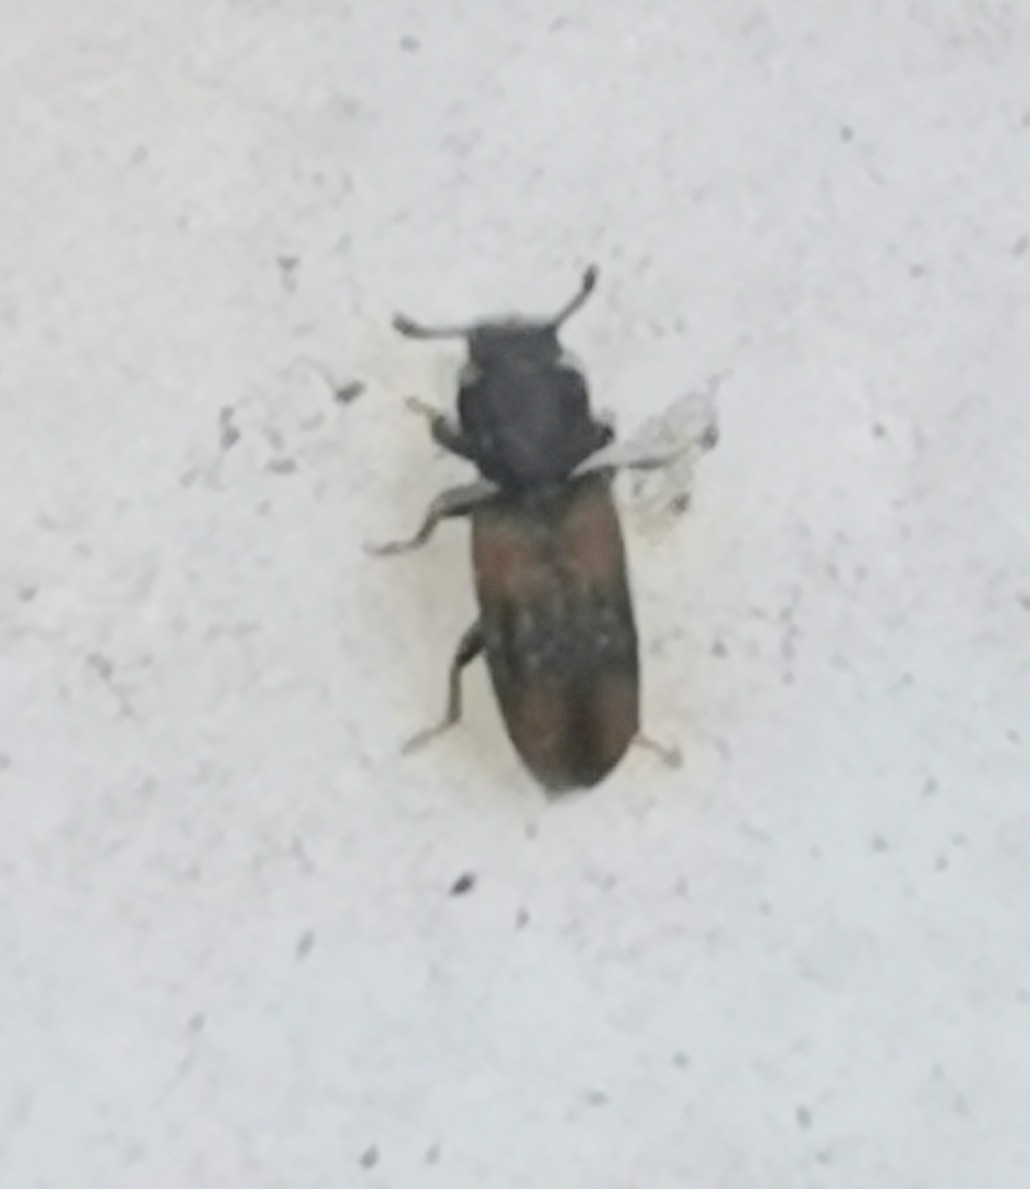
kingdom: Animalia
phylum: Arthropoda
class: Insecta
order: Coleoptera
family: Zopheridae
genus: Bitoma
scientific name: Bitoma crenata
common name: Bark beetle
